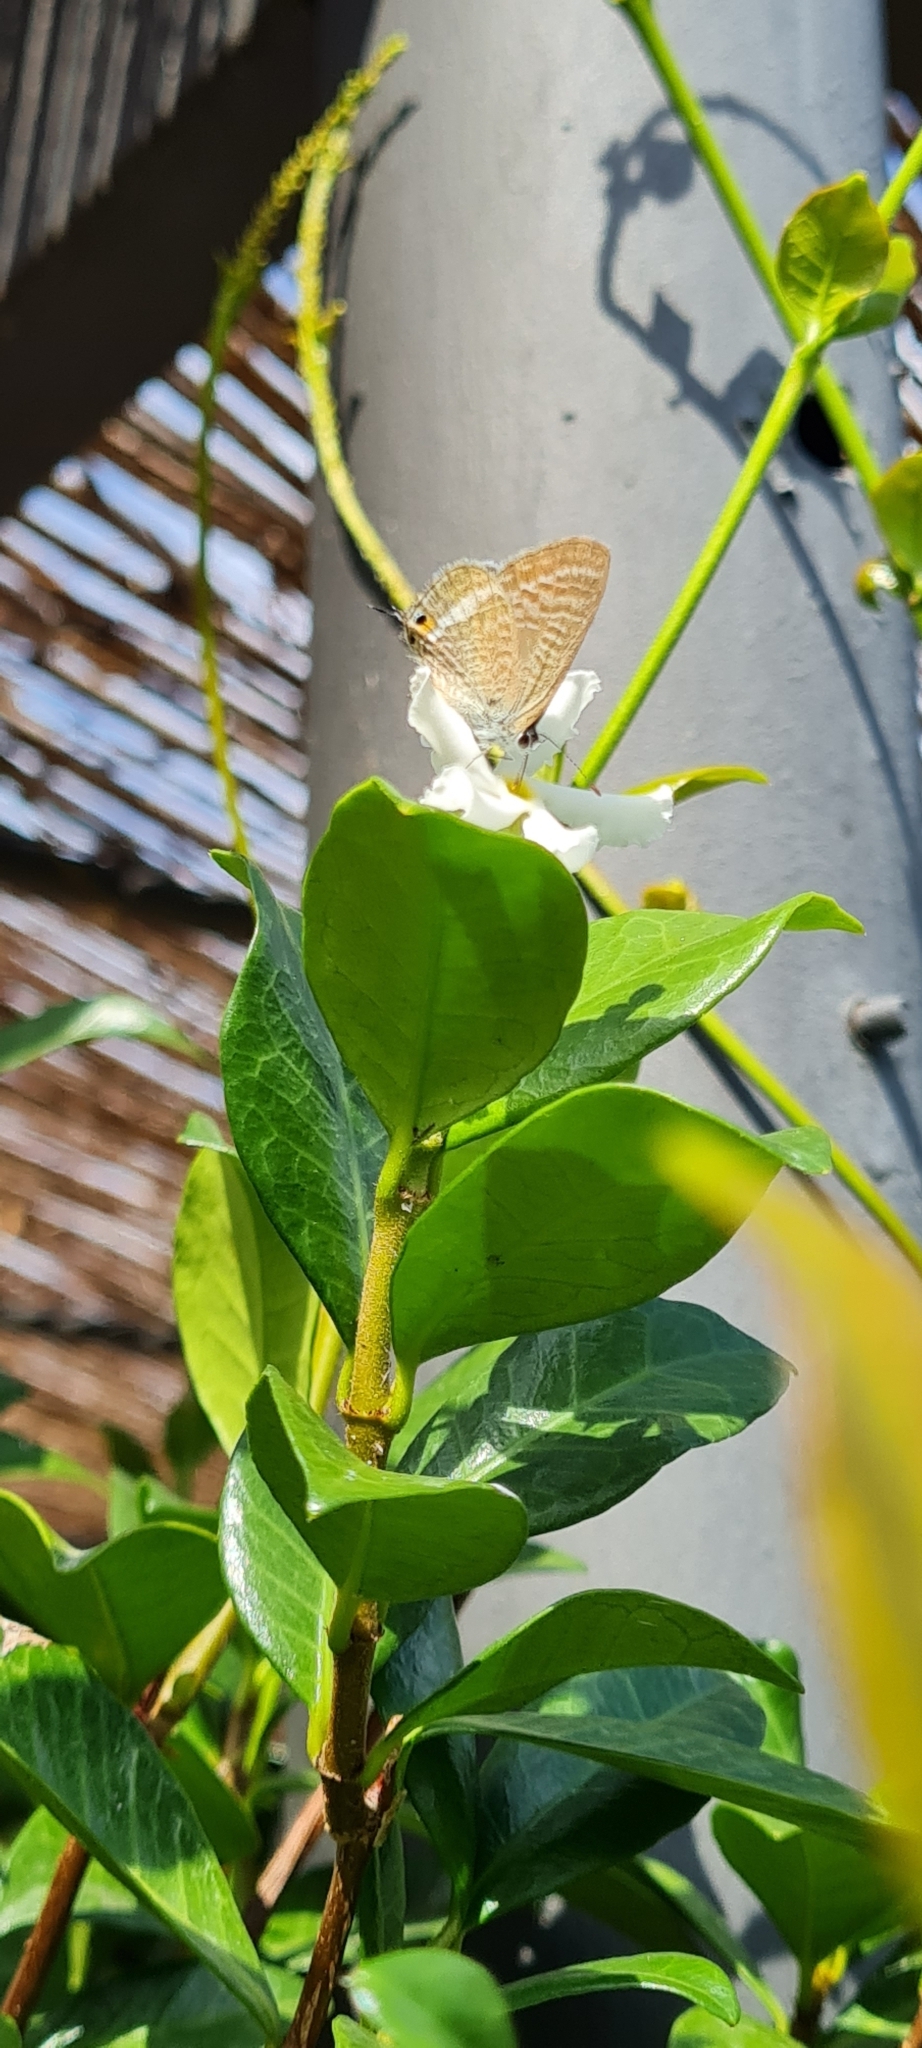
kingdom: Animalia
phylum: Arthropoda
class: Insecta
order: Lepidoptera
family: Lycaenidae
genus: Lampides
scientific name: Lampides boeticus
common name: Long-tailed blue
